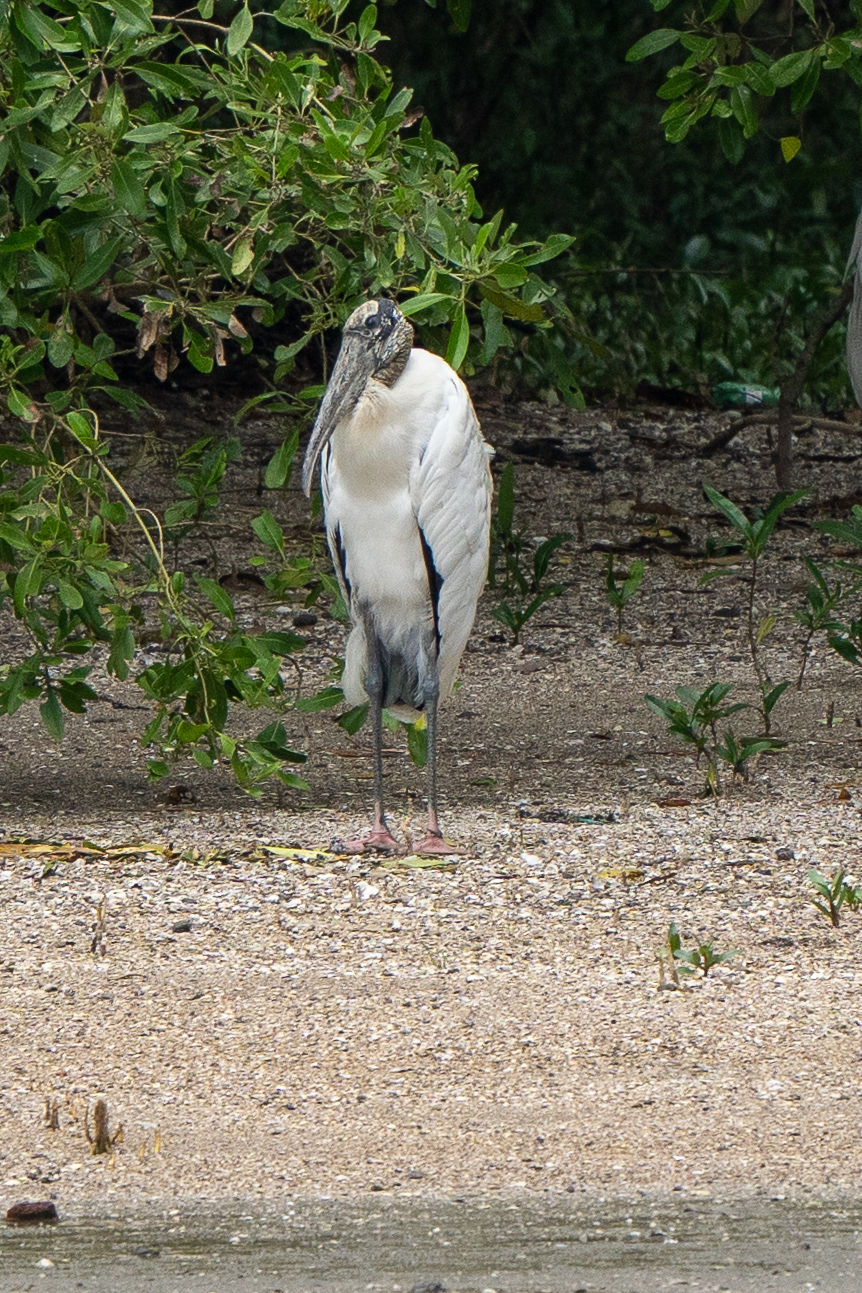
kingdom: Animalia
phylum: Chordata
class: Aves
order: Ciconiiformes
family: Ciconiidae
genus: Mycteria
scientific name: Mycteria americana
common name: Wood stork
